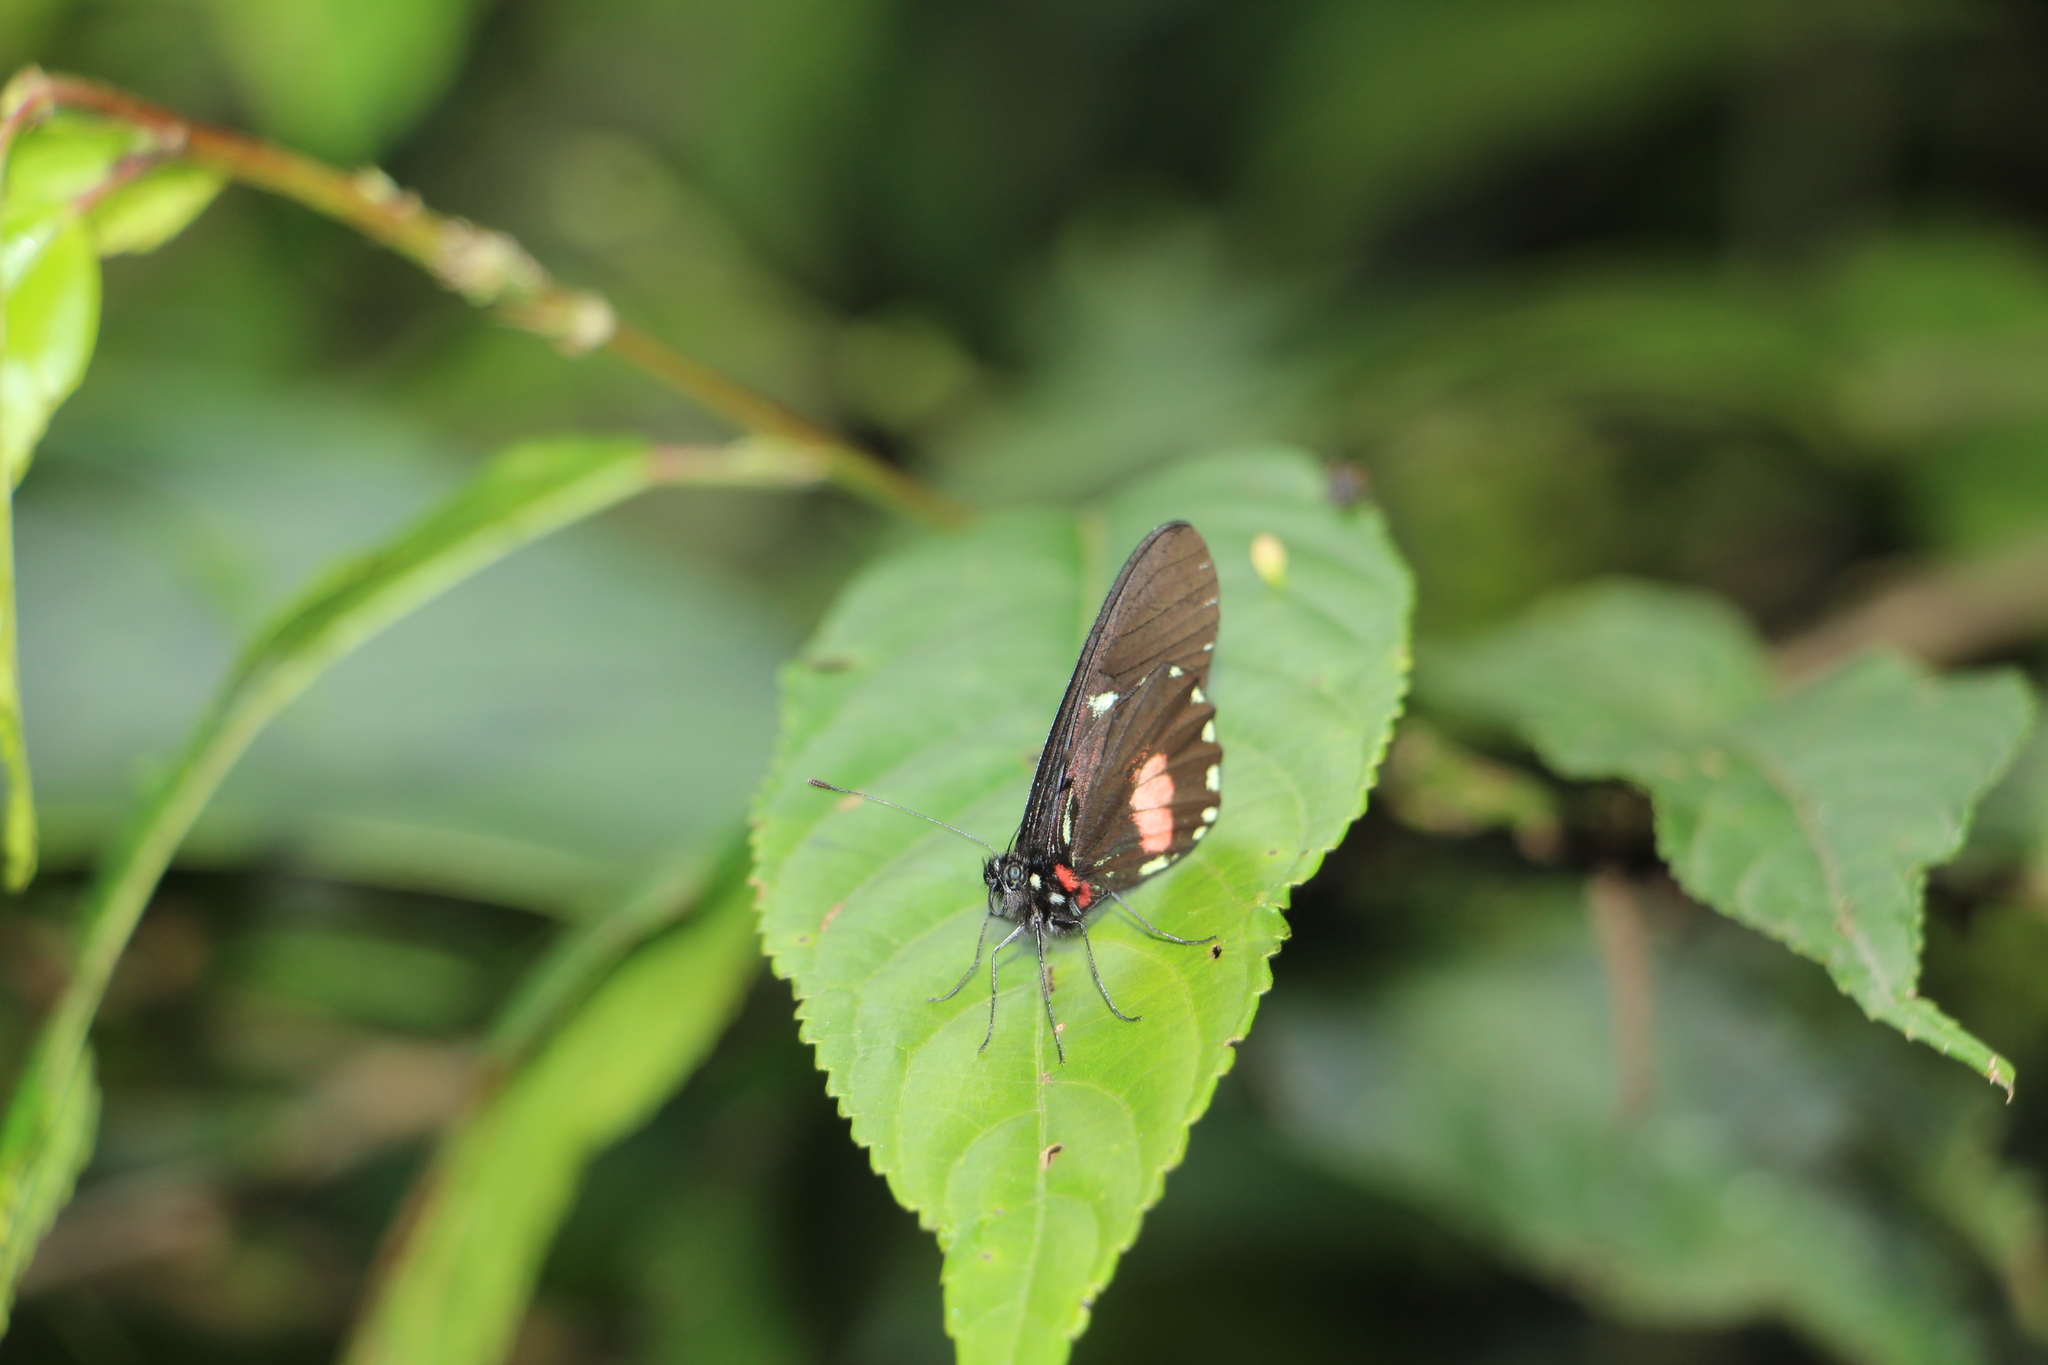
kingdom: Animalia
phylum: Arthropoda
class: Insecta
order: Lepidoptera
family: Pieridae
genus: Archonias
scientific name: Archonias brassolis
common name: Cattleheart white
